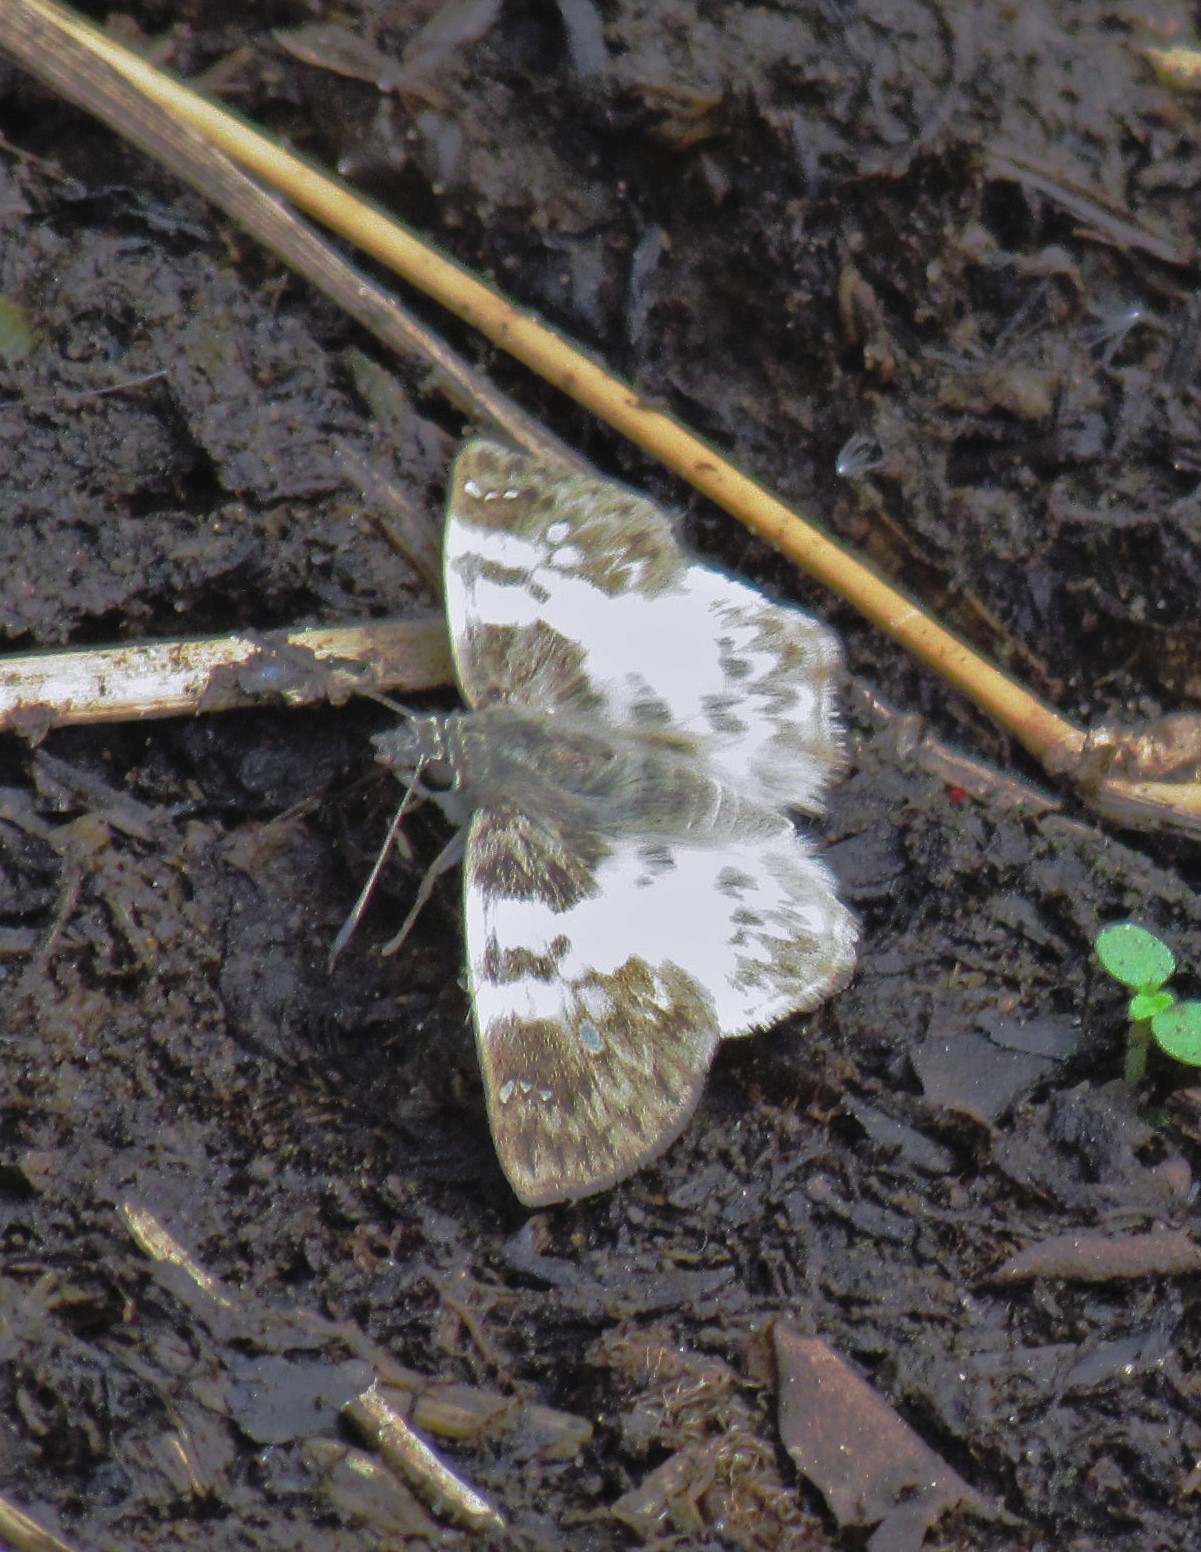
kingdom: Animalia
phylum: Arthropoda
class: Insecta
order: Lepidoptera
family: Hesperiidae
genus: Polyctor
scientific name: Polyctor polyctor
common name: Polyctor tufted-skipper
